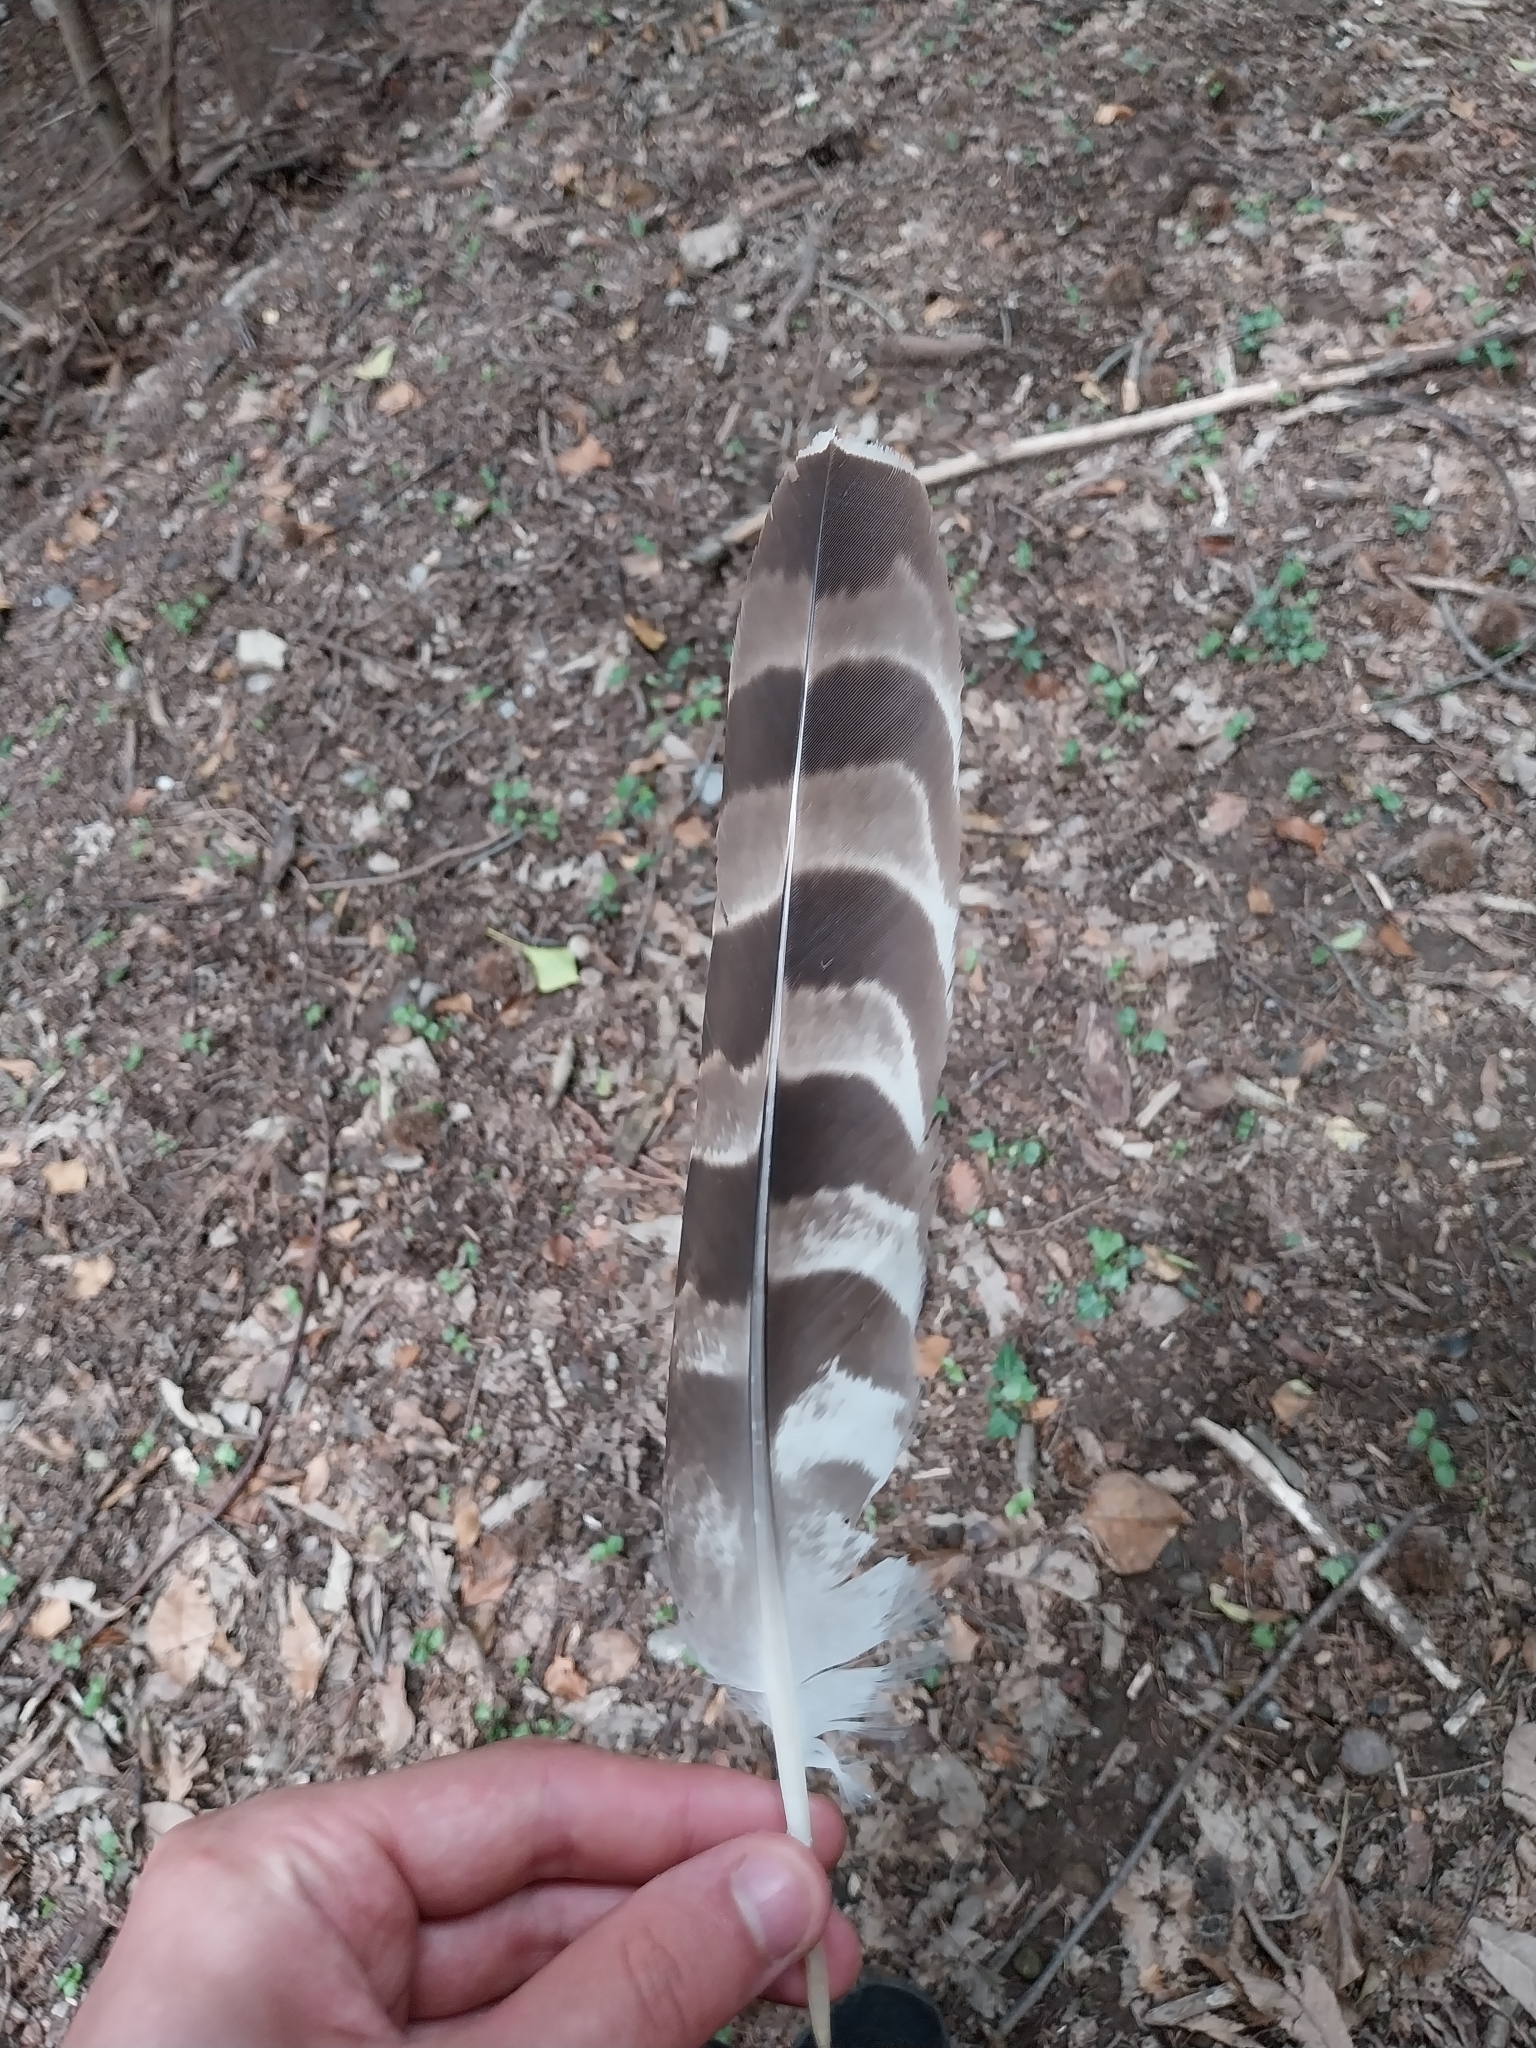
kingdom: Animalia
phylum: Chordata
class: Aves
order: Accipitriformes
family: Accipitridae
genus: Accipiter
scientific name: Accipiter gentilis
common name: Northern goshawk
